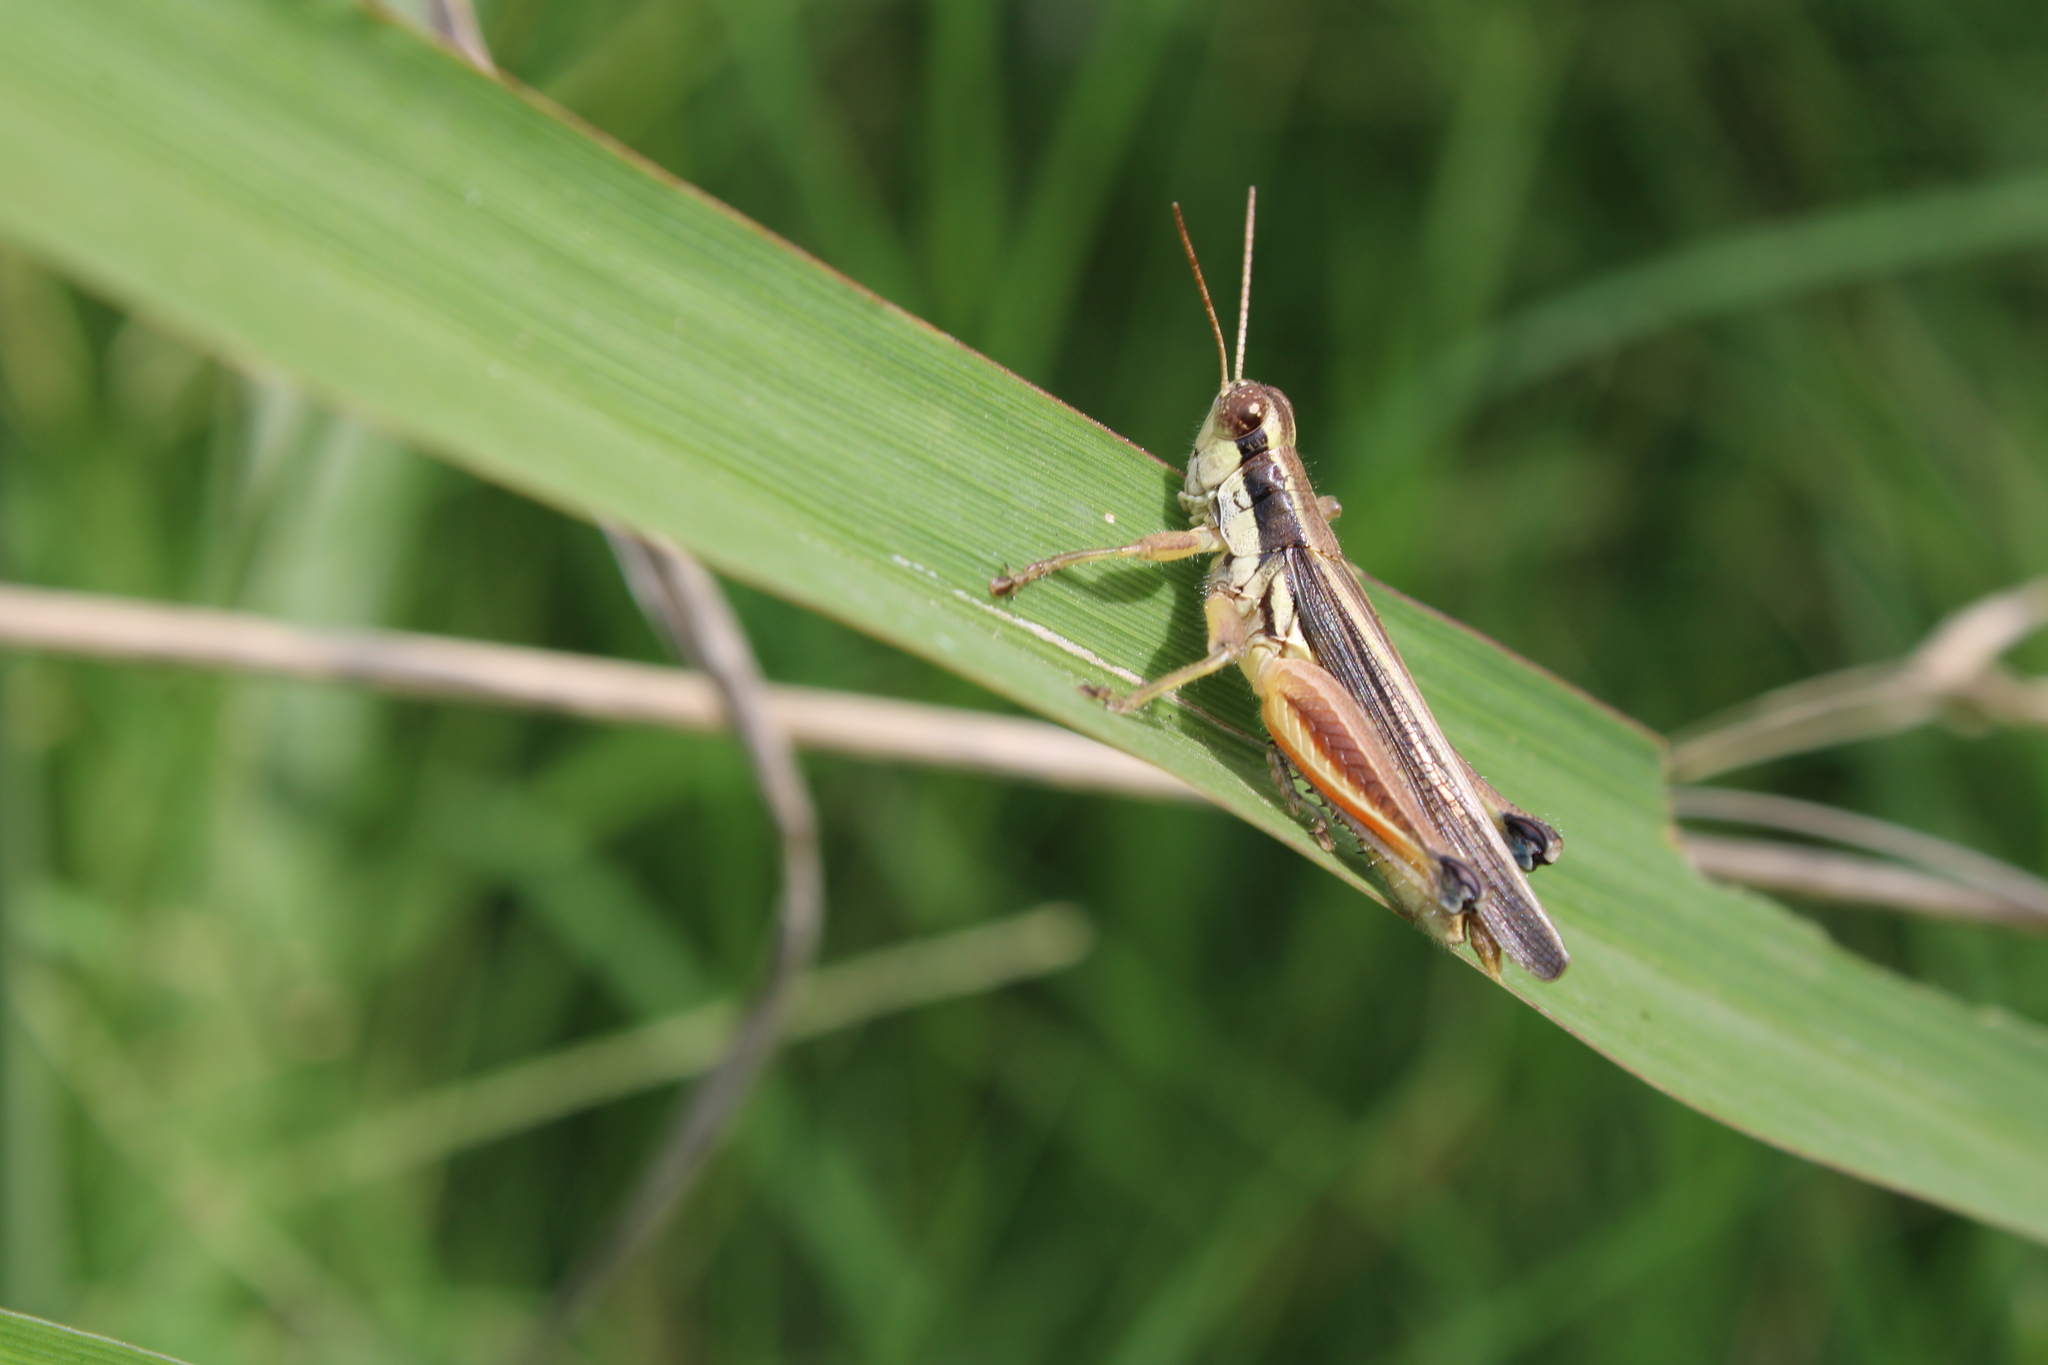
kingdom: Animalia
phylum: Arthropoda
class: Insecta
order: Orthoptera
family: Acrididae
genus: Dichroplus
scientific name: Dichroplus elongatus
